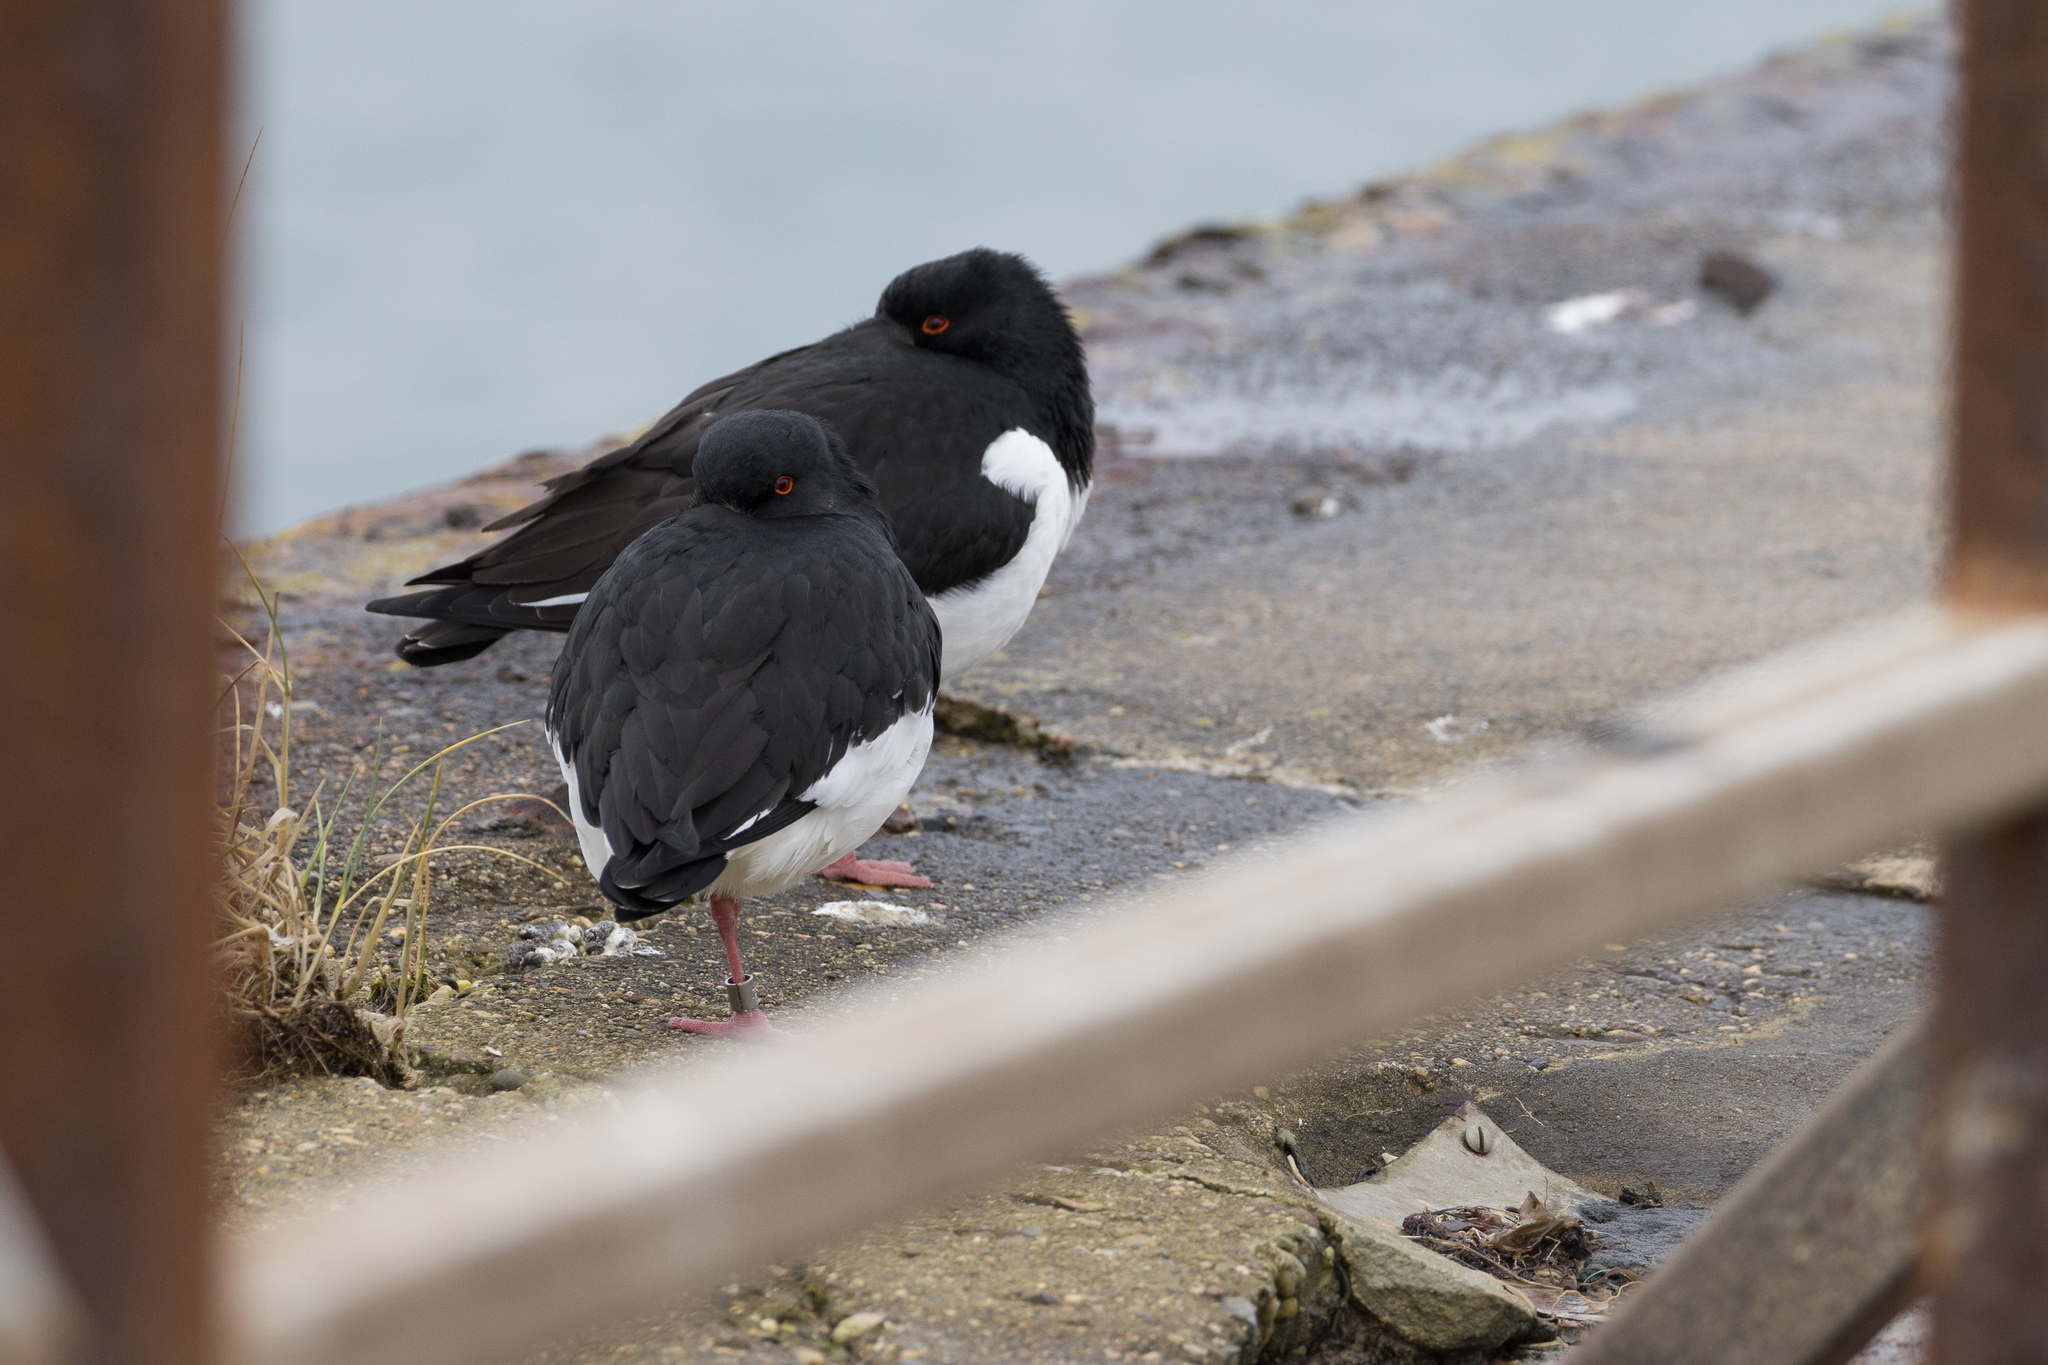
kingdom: Animalia
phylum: Chordata
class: Aves
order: Charadriiformes
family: Haematopodidae
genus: Haematopus
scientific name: Haematopus ostralegus
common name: Eurasian oystercatcher
